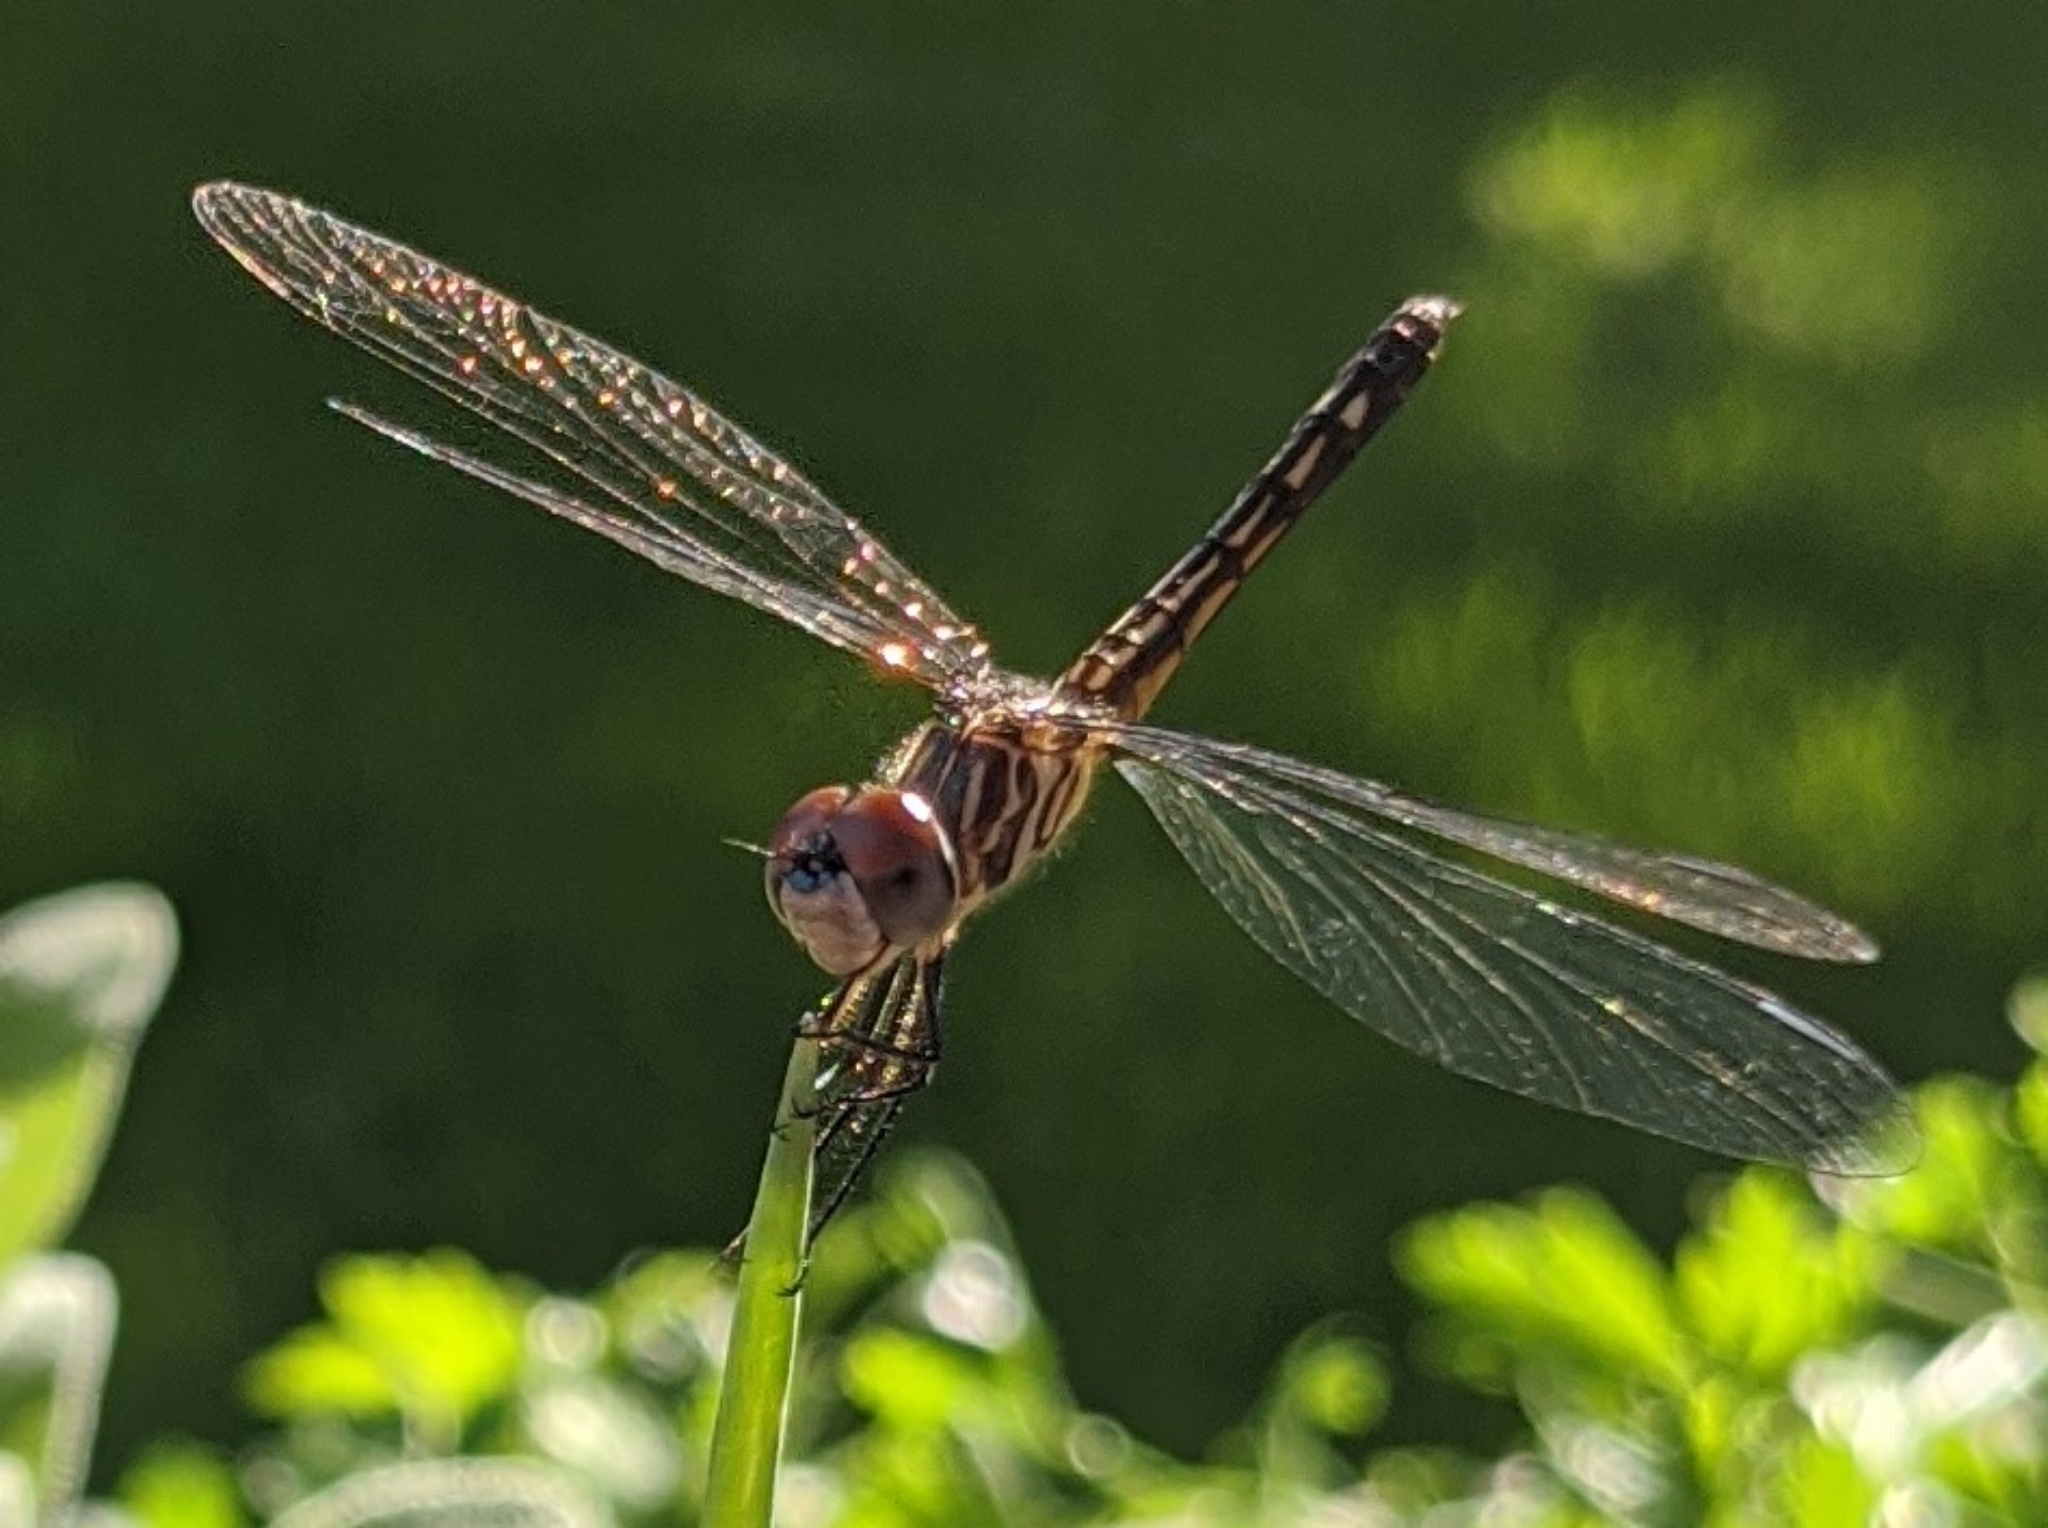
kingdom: Animalia
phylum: Arthropoda
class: Insecta
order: Odonata
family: Libellulidae
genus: Pachydiplax
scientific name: Pachydiplax longipennis
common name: Blue dasher
